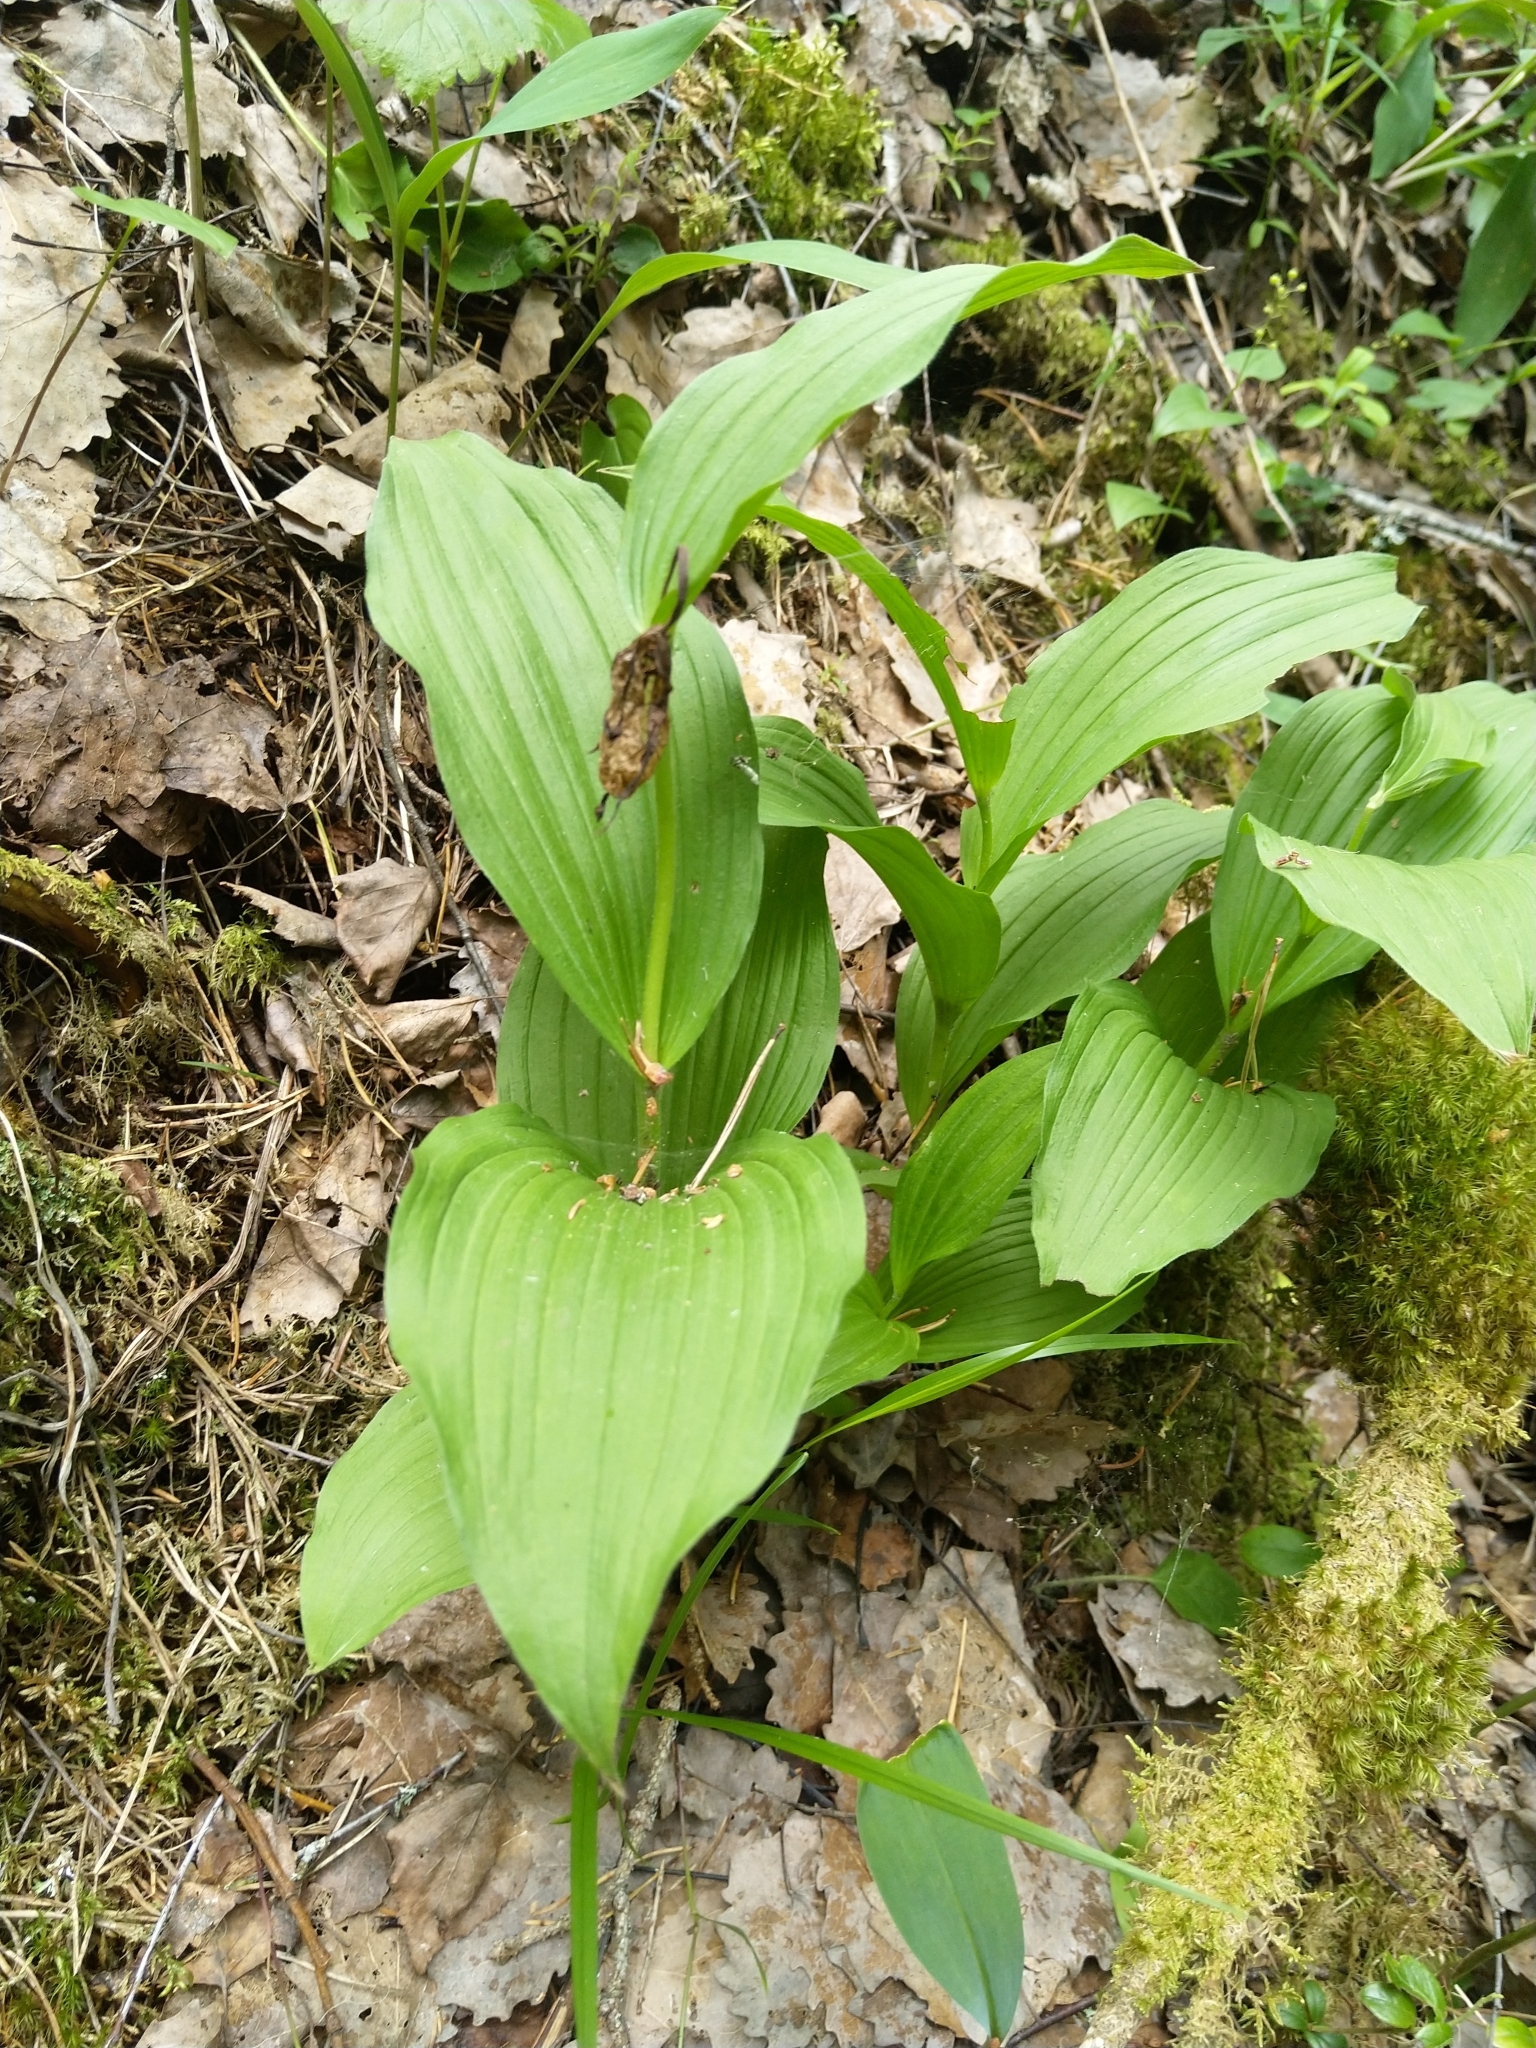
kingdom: Plantae
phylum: Tracheophyta
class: Liliopsida
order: Asparagales
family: Orchidaceae
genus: Cypripedium
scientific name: Cypripedium calceolus
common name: Lady's-slipper
